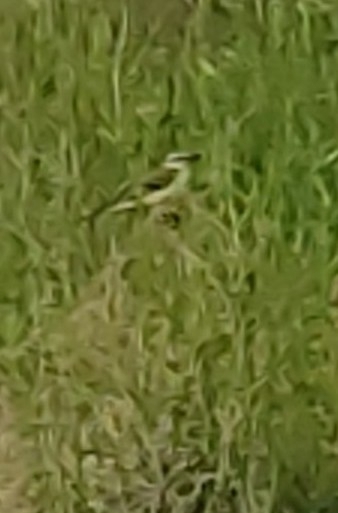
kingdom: Animalia
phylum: Chordata
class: Aves
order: Passeriformes
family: Motacillidae
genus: Motacilla
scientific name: Motacilla flava
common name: Western yellow wagtail
